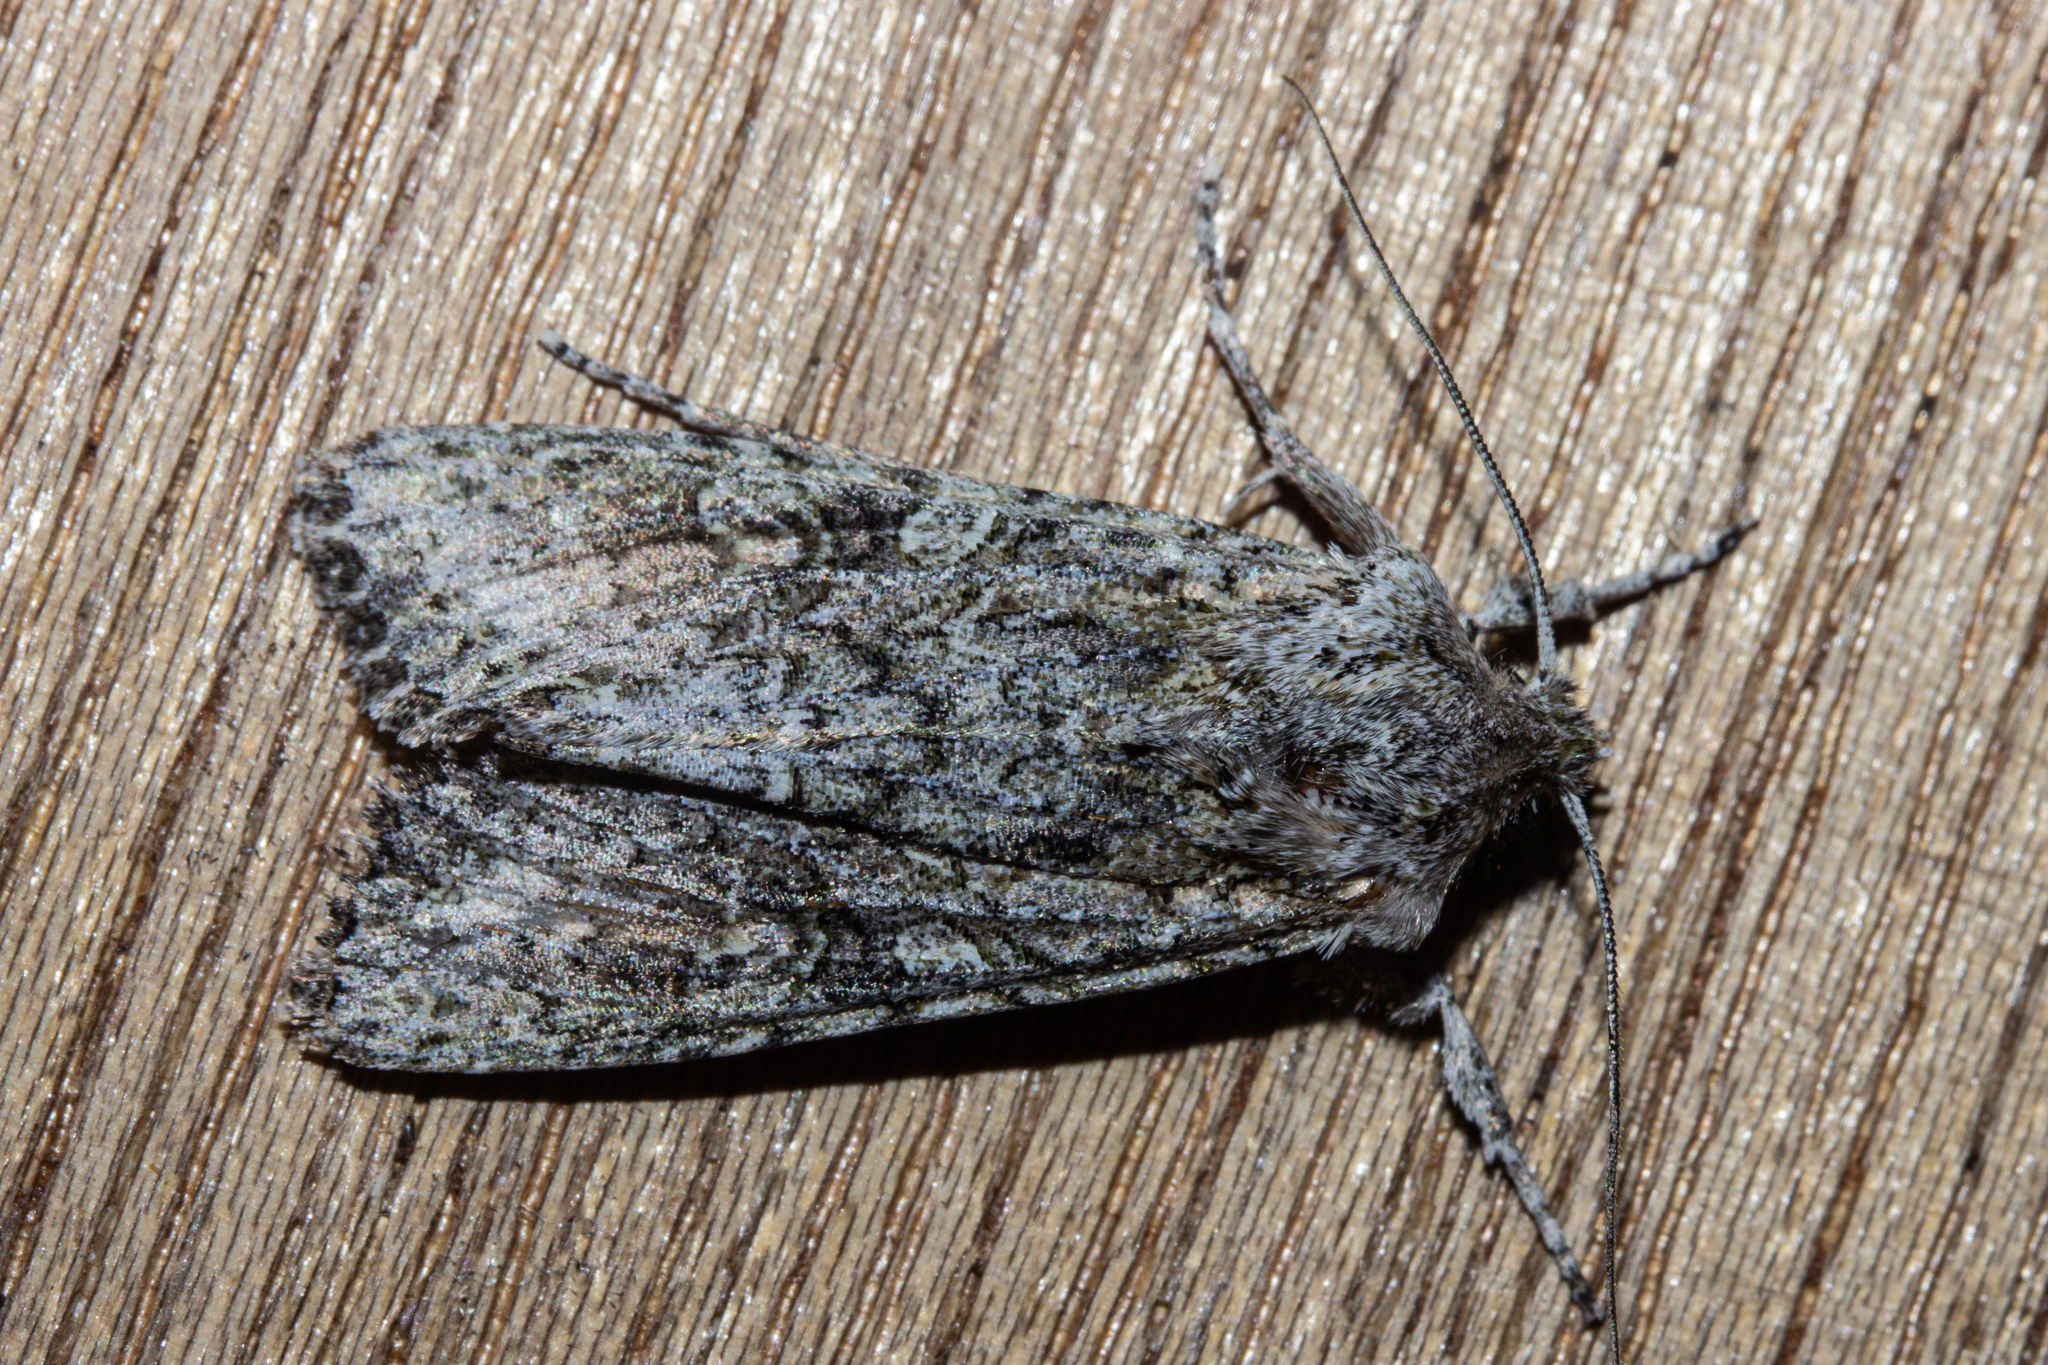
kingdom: Animalia
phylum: Arthropoda
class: Insecta
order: Lepidoptera
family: Noctuidae
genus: Ichneutica
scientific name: Ichneutica mutans
